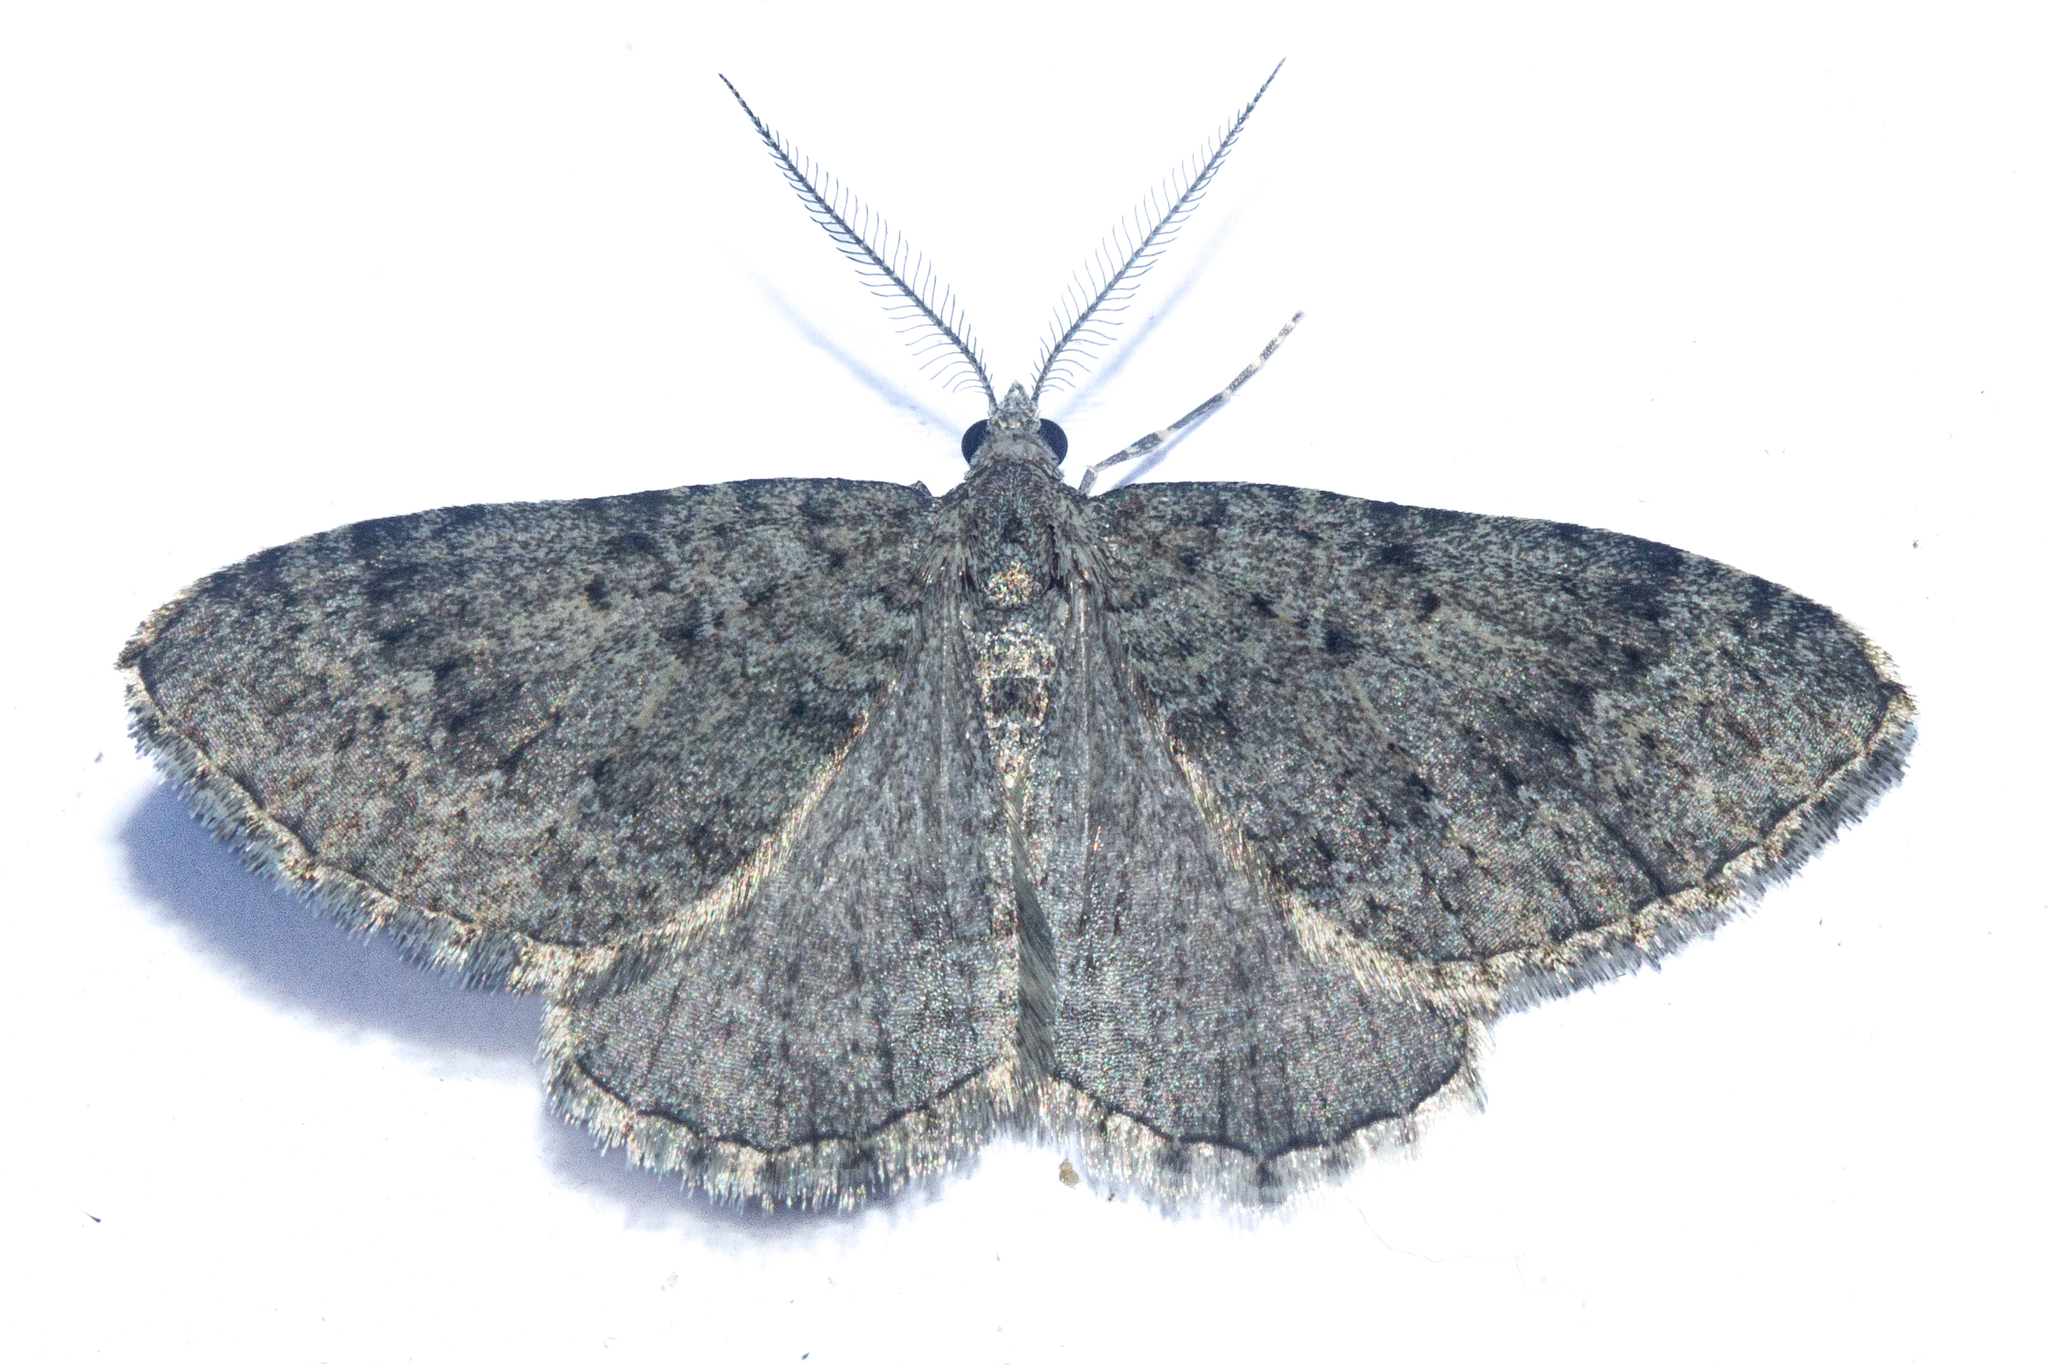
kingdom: Animalia
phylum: Arthropoda
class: Insecta
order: Lepidoptera
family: Geometridae
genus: Helastia
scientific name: Helastia corcularia
